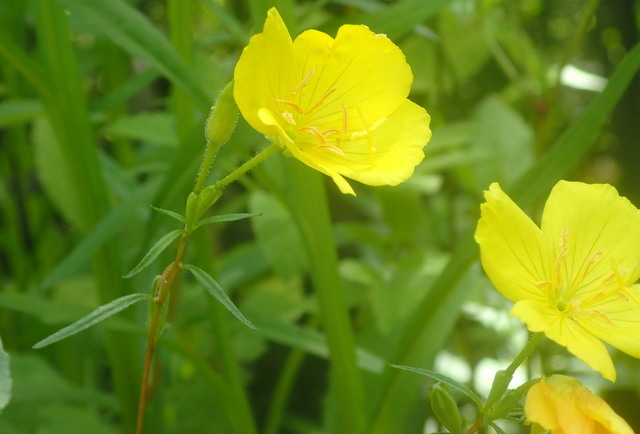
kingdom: Plantae
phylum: Tracheophyta
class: Magnoliopsida
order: Myrtales
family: Onagraceae
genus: Oenothera
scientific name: Oenothera fruticosa
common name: Southern sundrops
